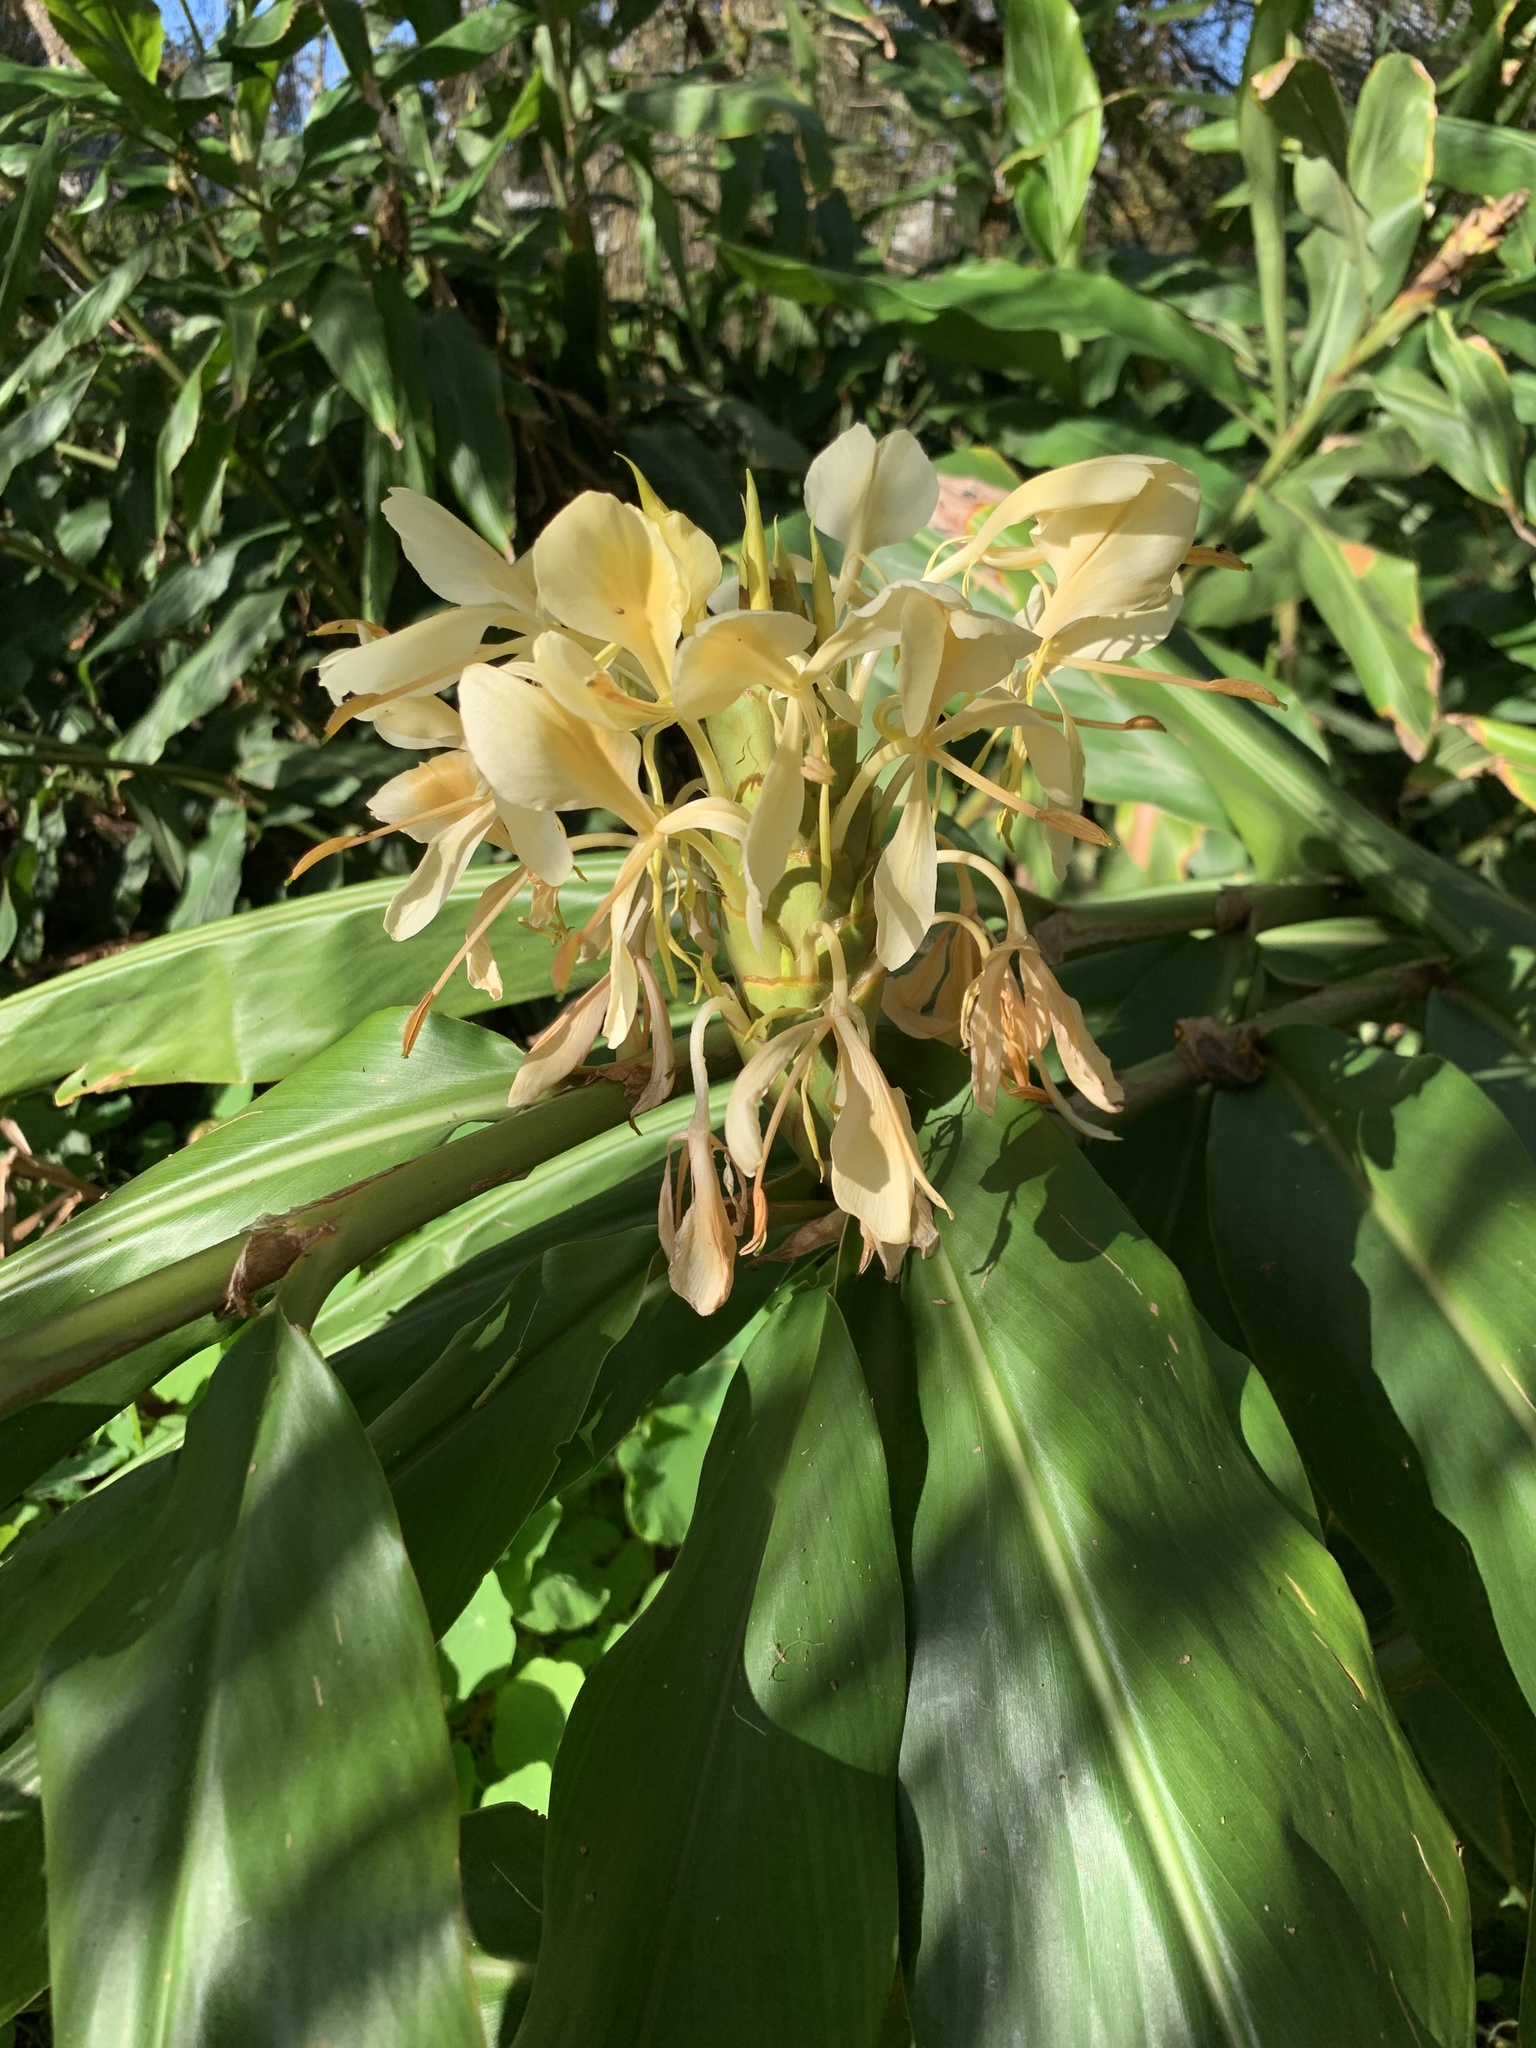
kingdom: Plantae
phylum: Tracheophyta
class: Liliopsida
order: Zingiberales
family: Zingiberaceae
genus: Hedychium
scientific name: Hedychium flavescens
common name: Yellow ginger
